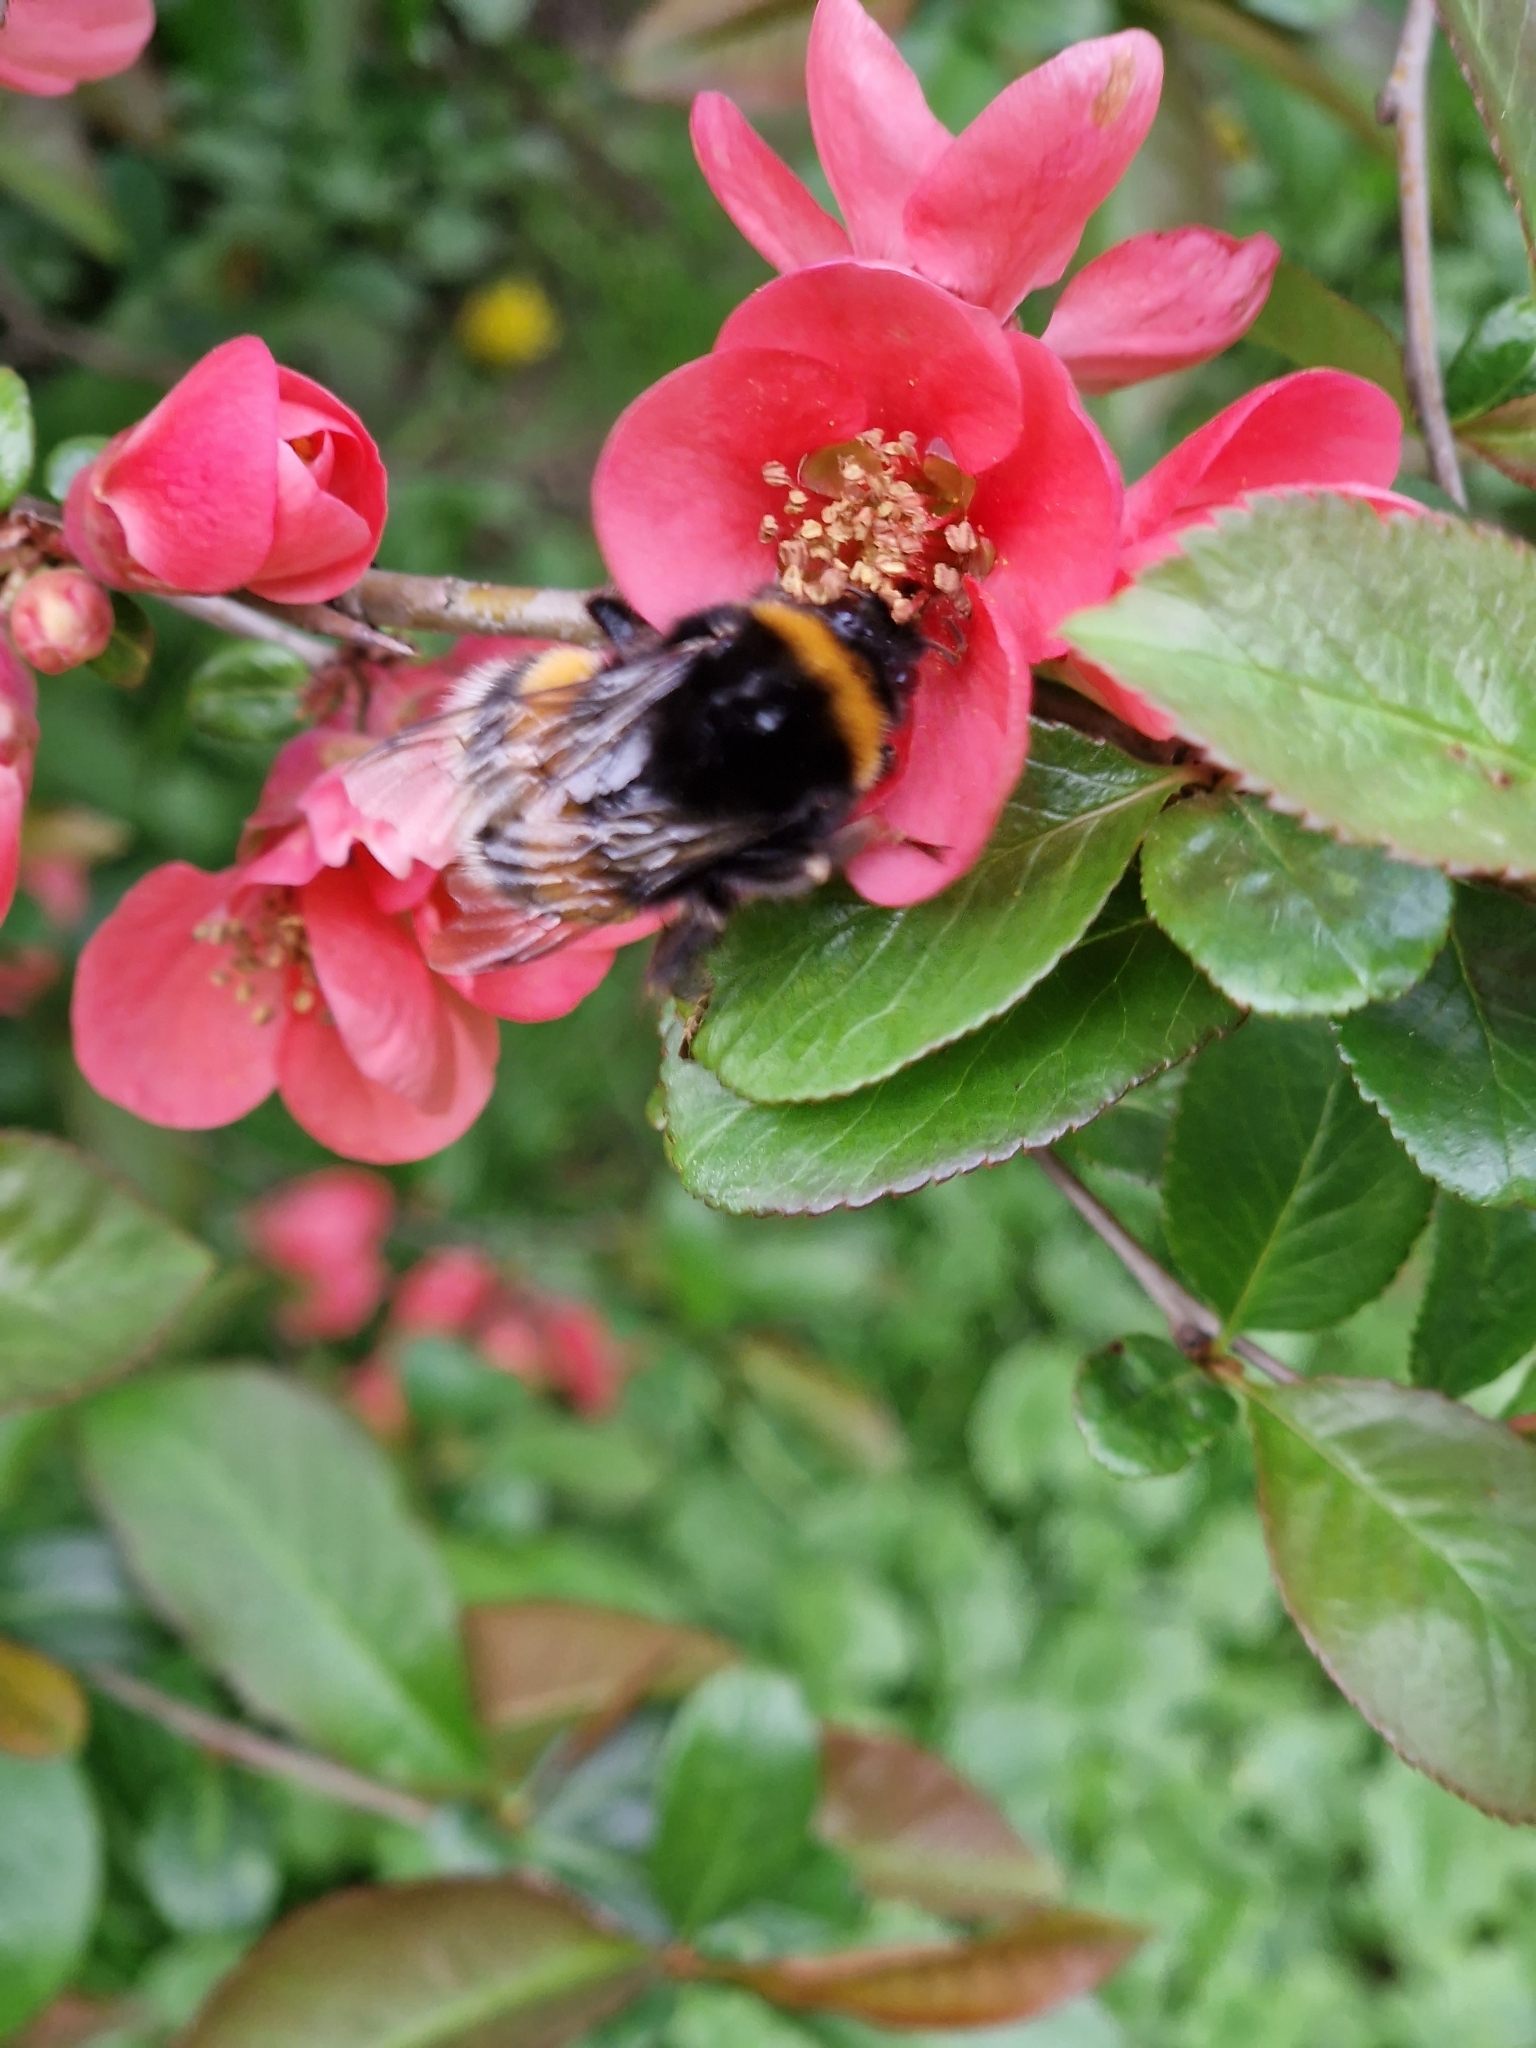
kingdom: Animalia
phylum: Arthropoda
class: Insecta
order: Hymenoptera
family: Apidae
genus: Bombus
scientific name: Bombus terrestris
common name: Buff-tailed bumblebee
